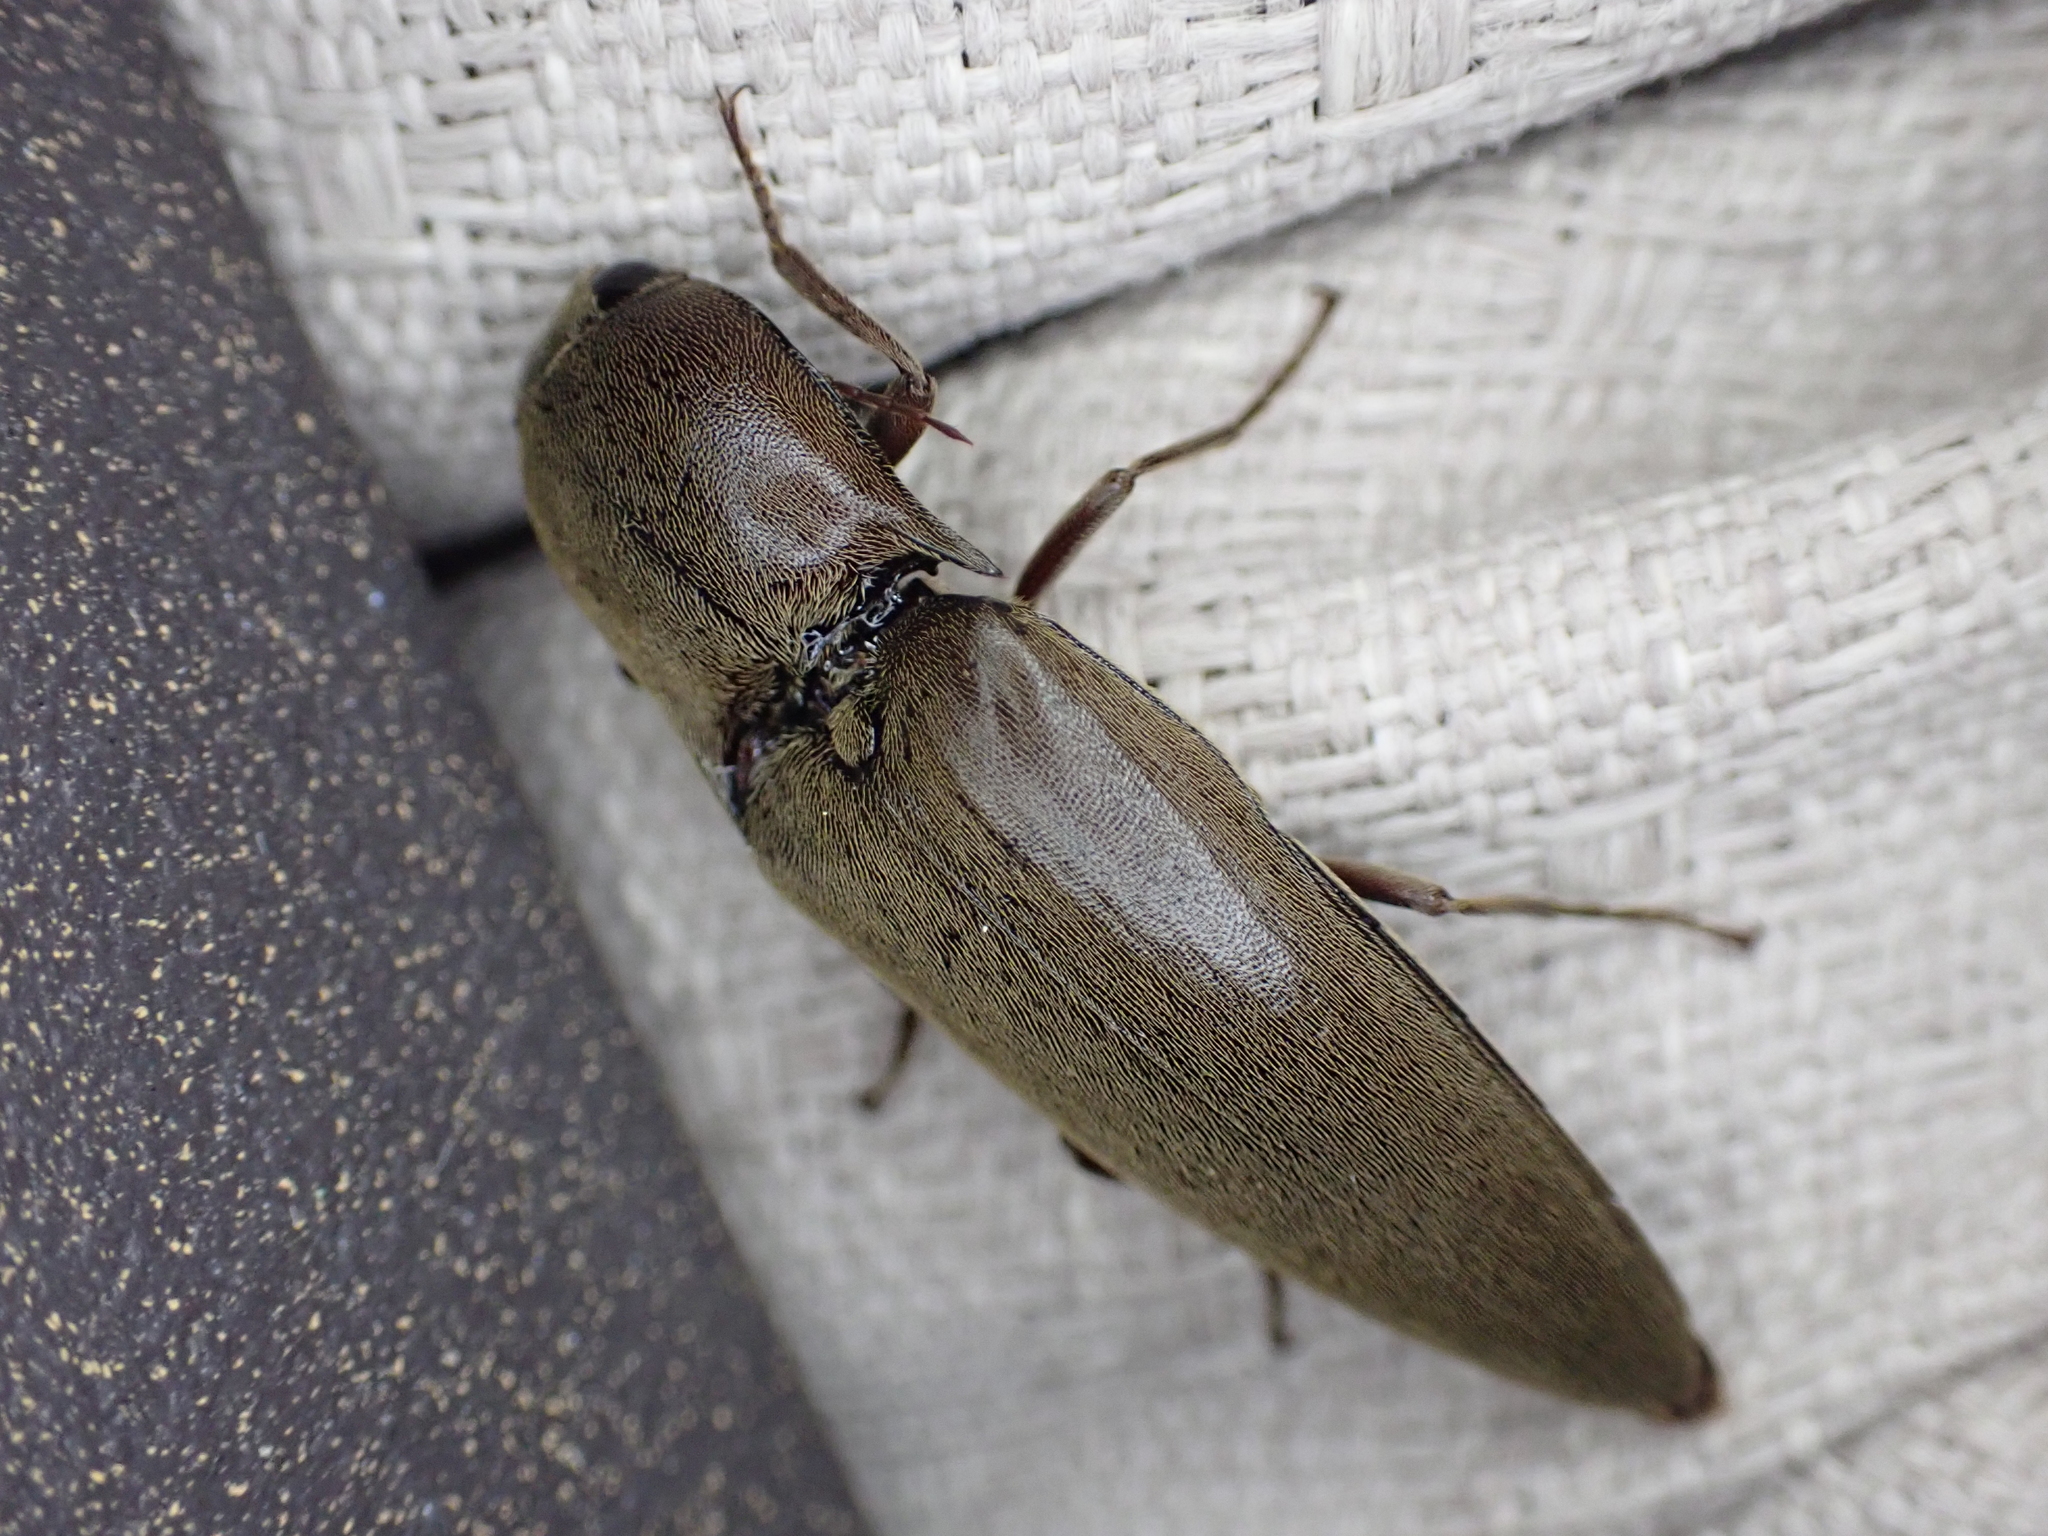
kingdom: Animalia
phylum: Arthropoda
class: Insecta
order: Coleoptera
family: Elateridae
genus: Orthostethus
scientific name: Orthostethus infuscatus
